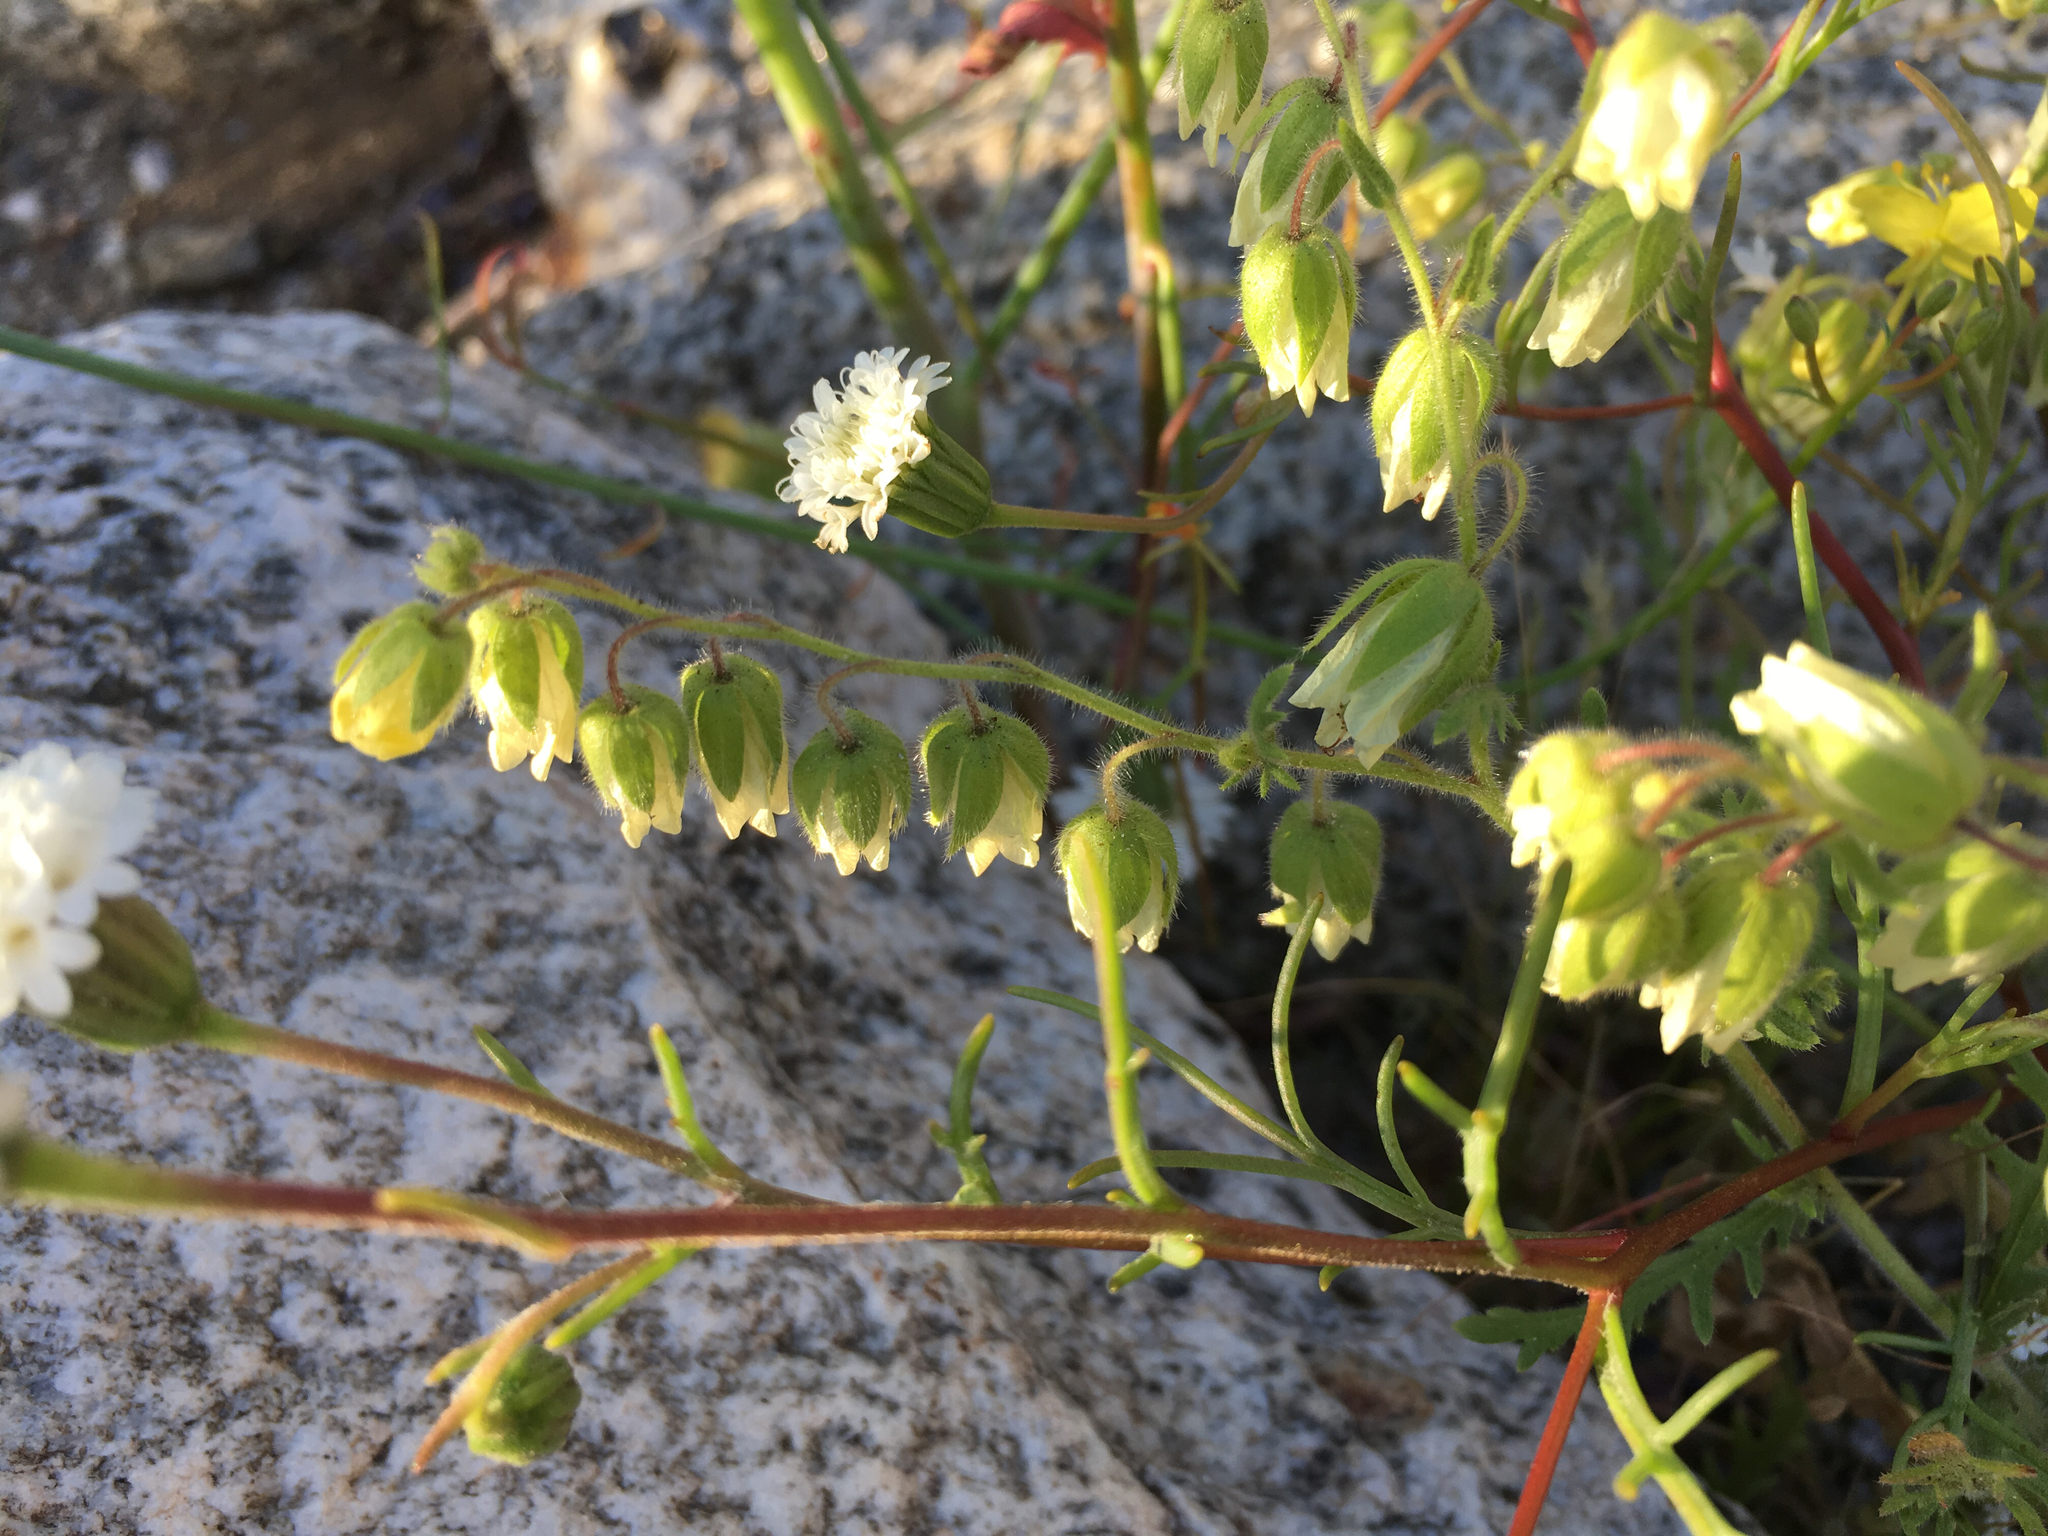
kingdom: Plantae
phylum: Tracheophyta
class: Magnoliopsida
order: Boraginales
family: Hydrophyllaceae
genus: Emmenanthe
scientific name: Emmenanthe penduliflora
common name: Whispering-bells
